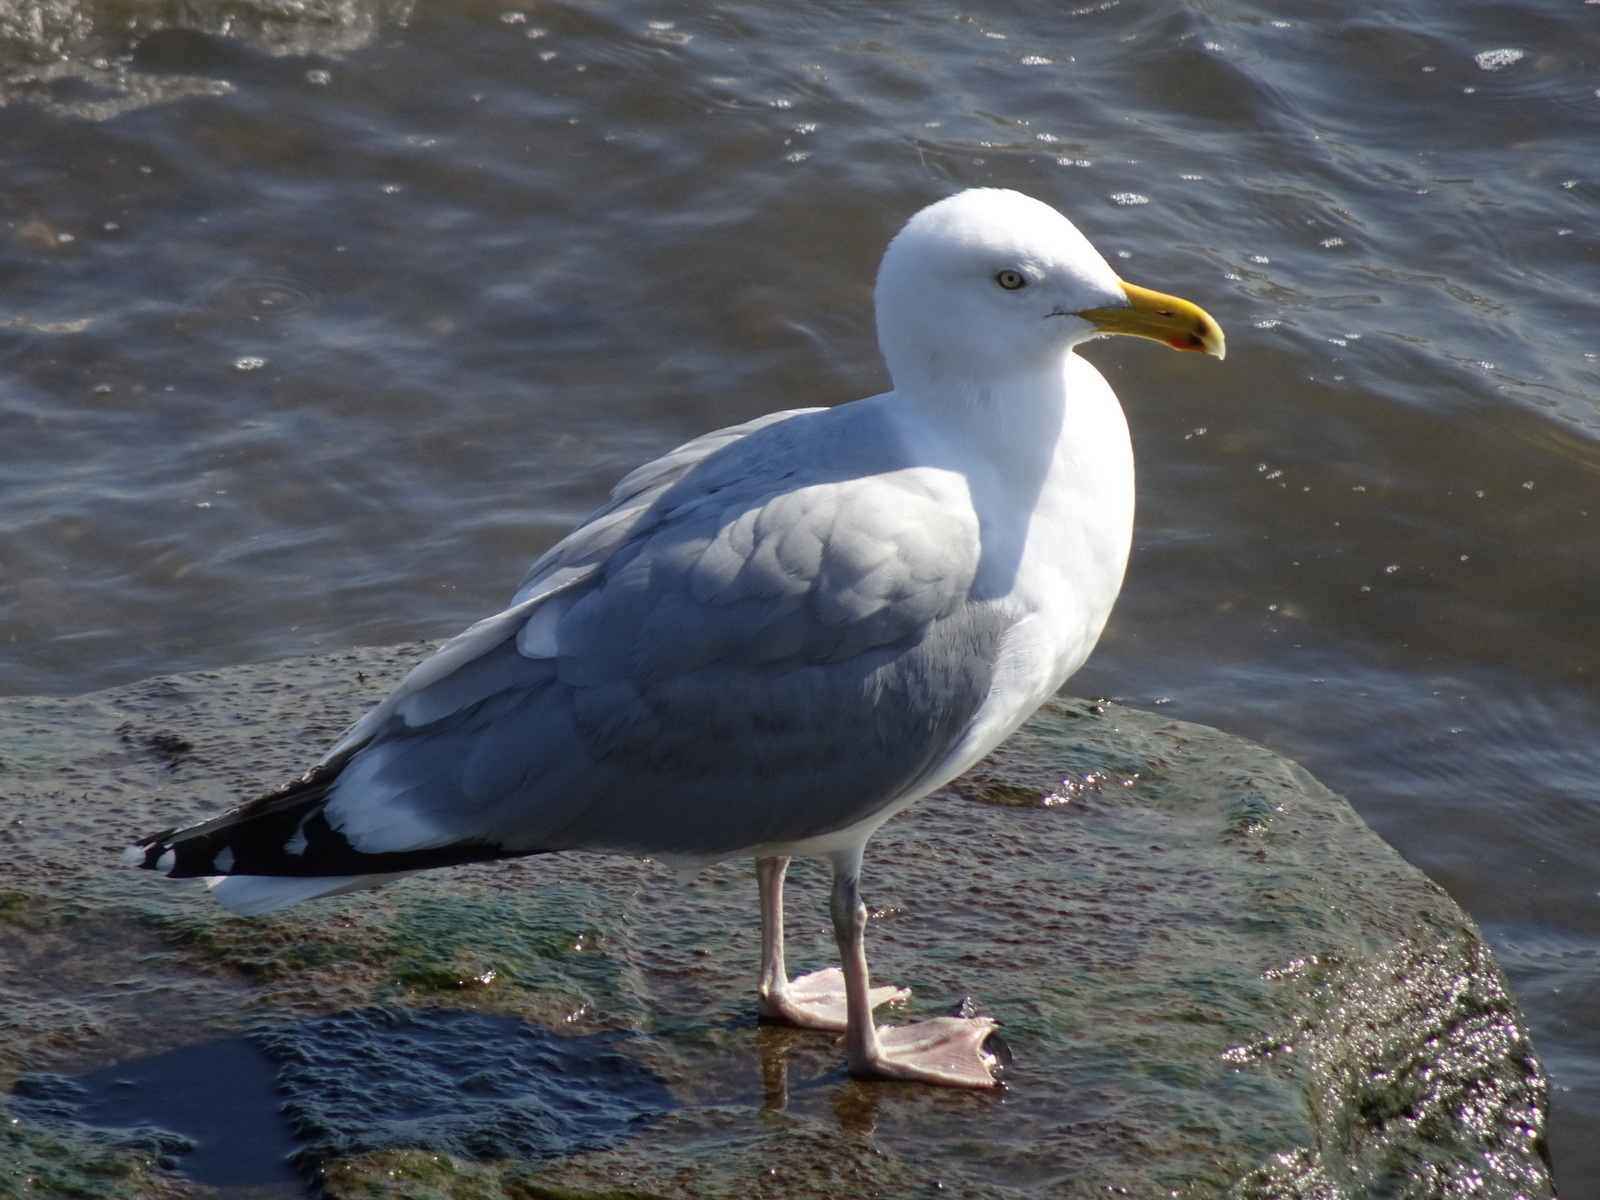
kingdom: Animalia
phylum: Chordata
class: Aves
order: Charadriiformes
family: Laridae
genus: Larus
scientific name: Larus argentatus
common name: Herring gull
